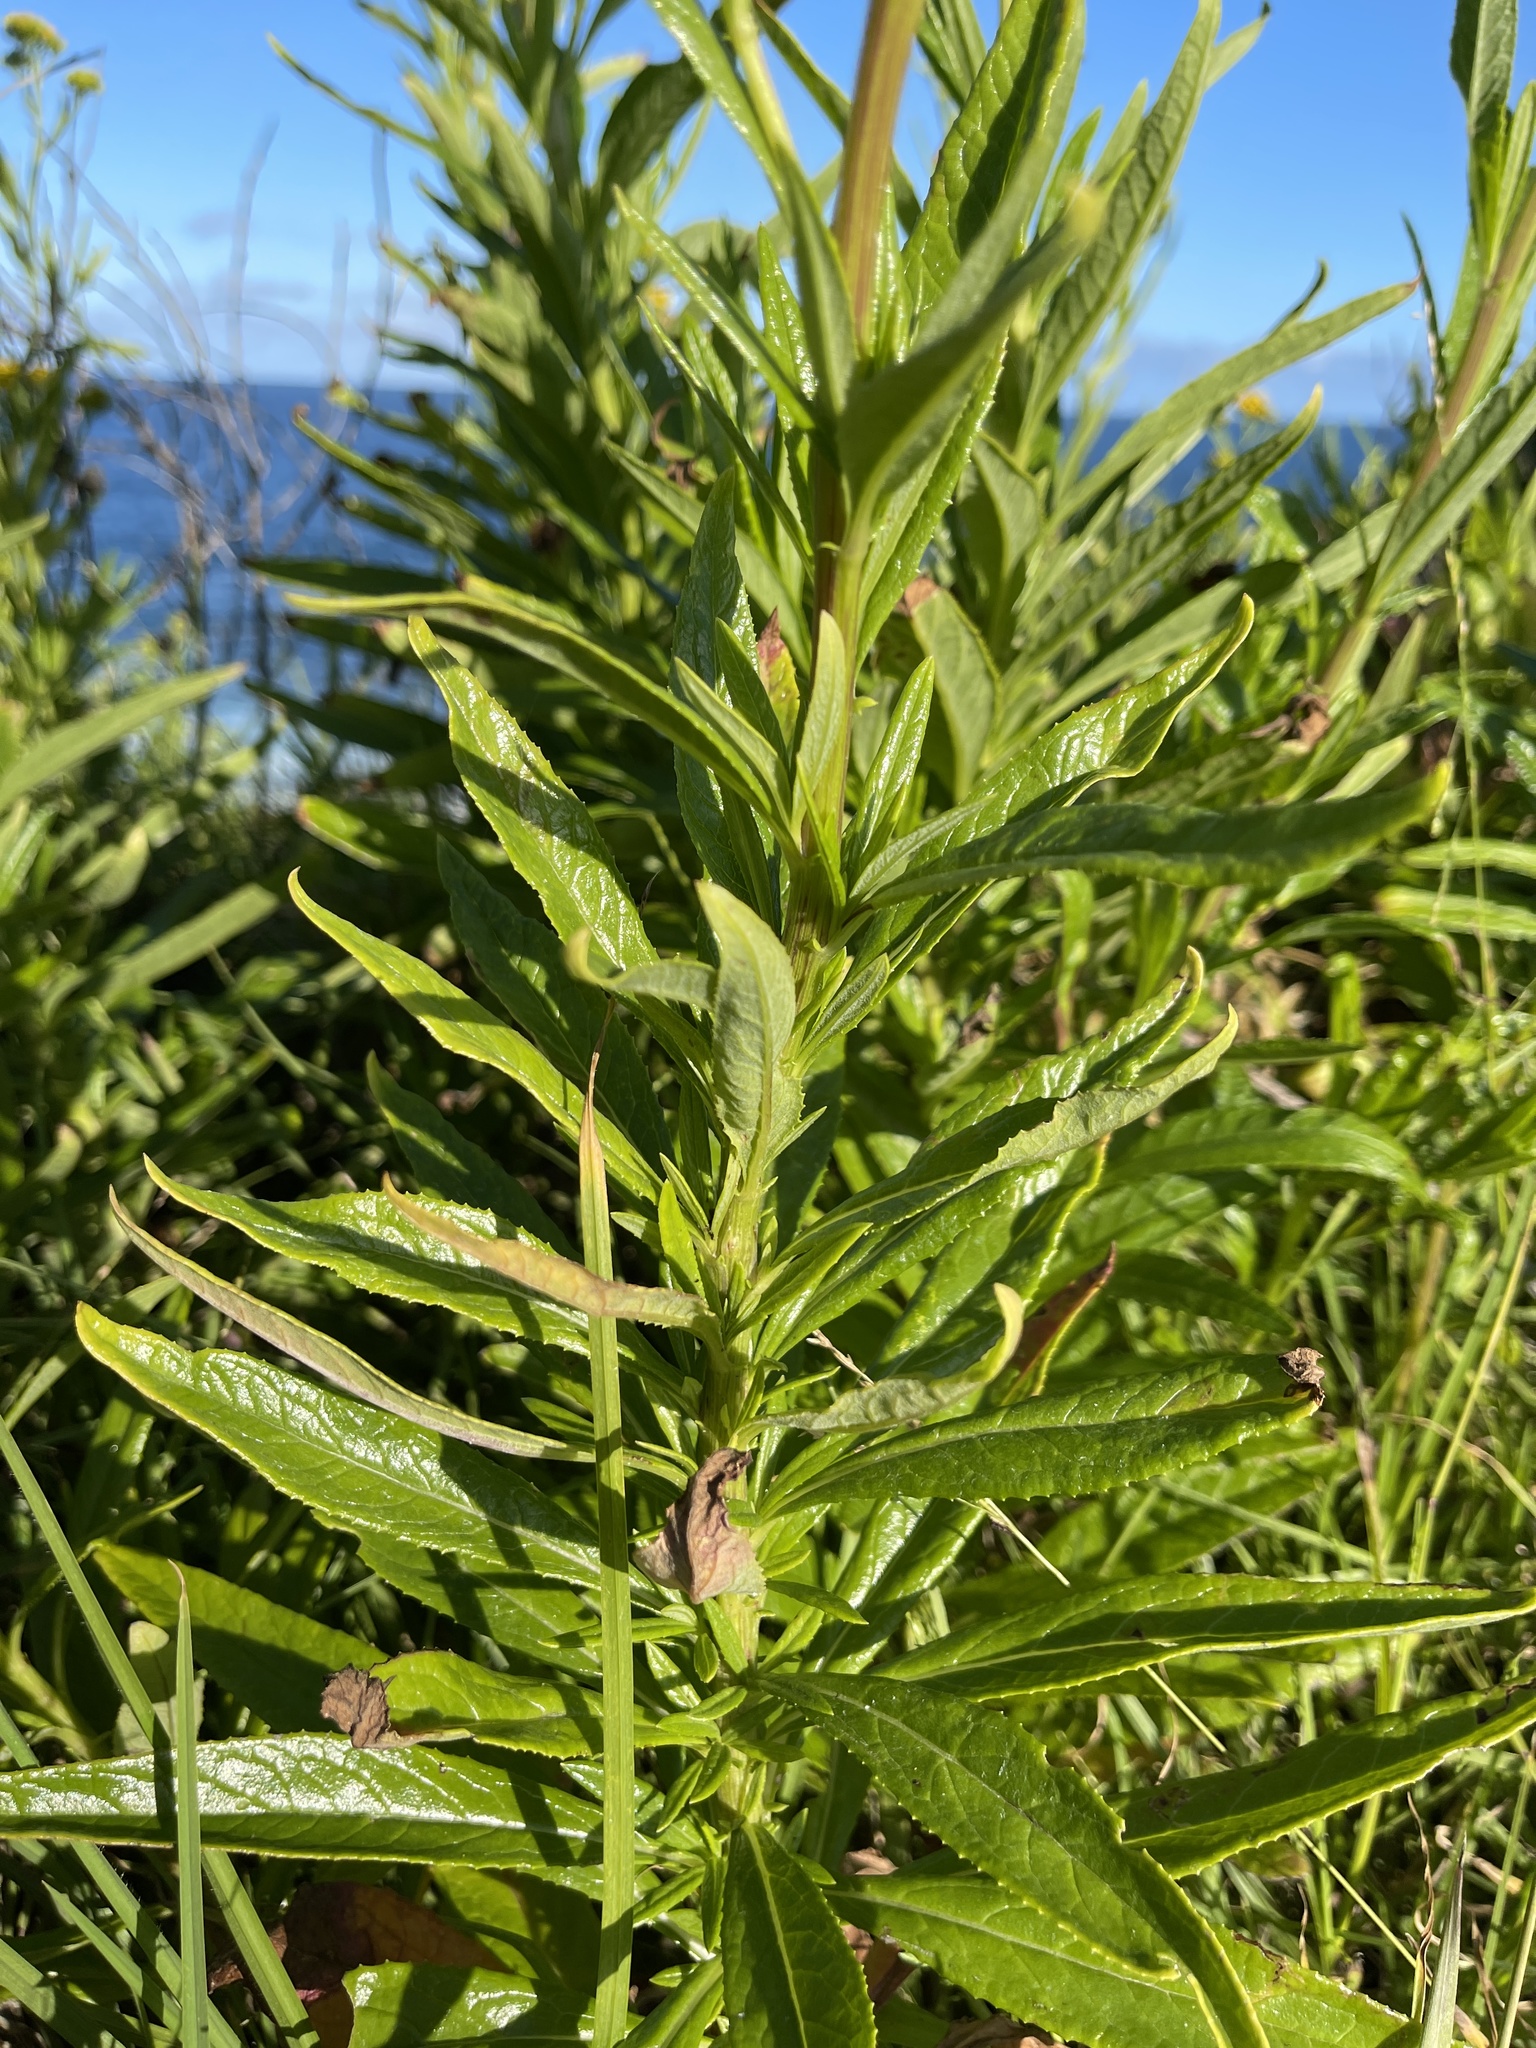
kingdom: Plantae
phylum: Tracheophyta
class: Magnoliopsida
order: Asterales
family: Asteraceae
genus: Senecio
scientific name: Senecio linearifolius
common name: Fireweed groundsel
